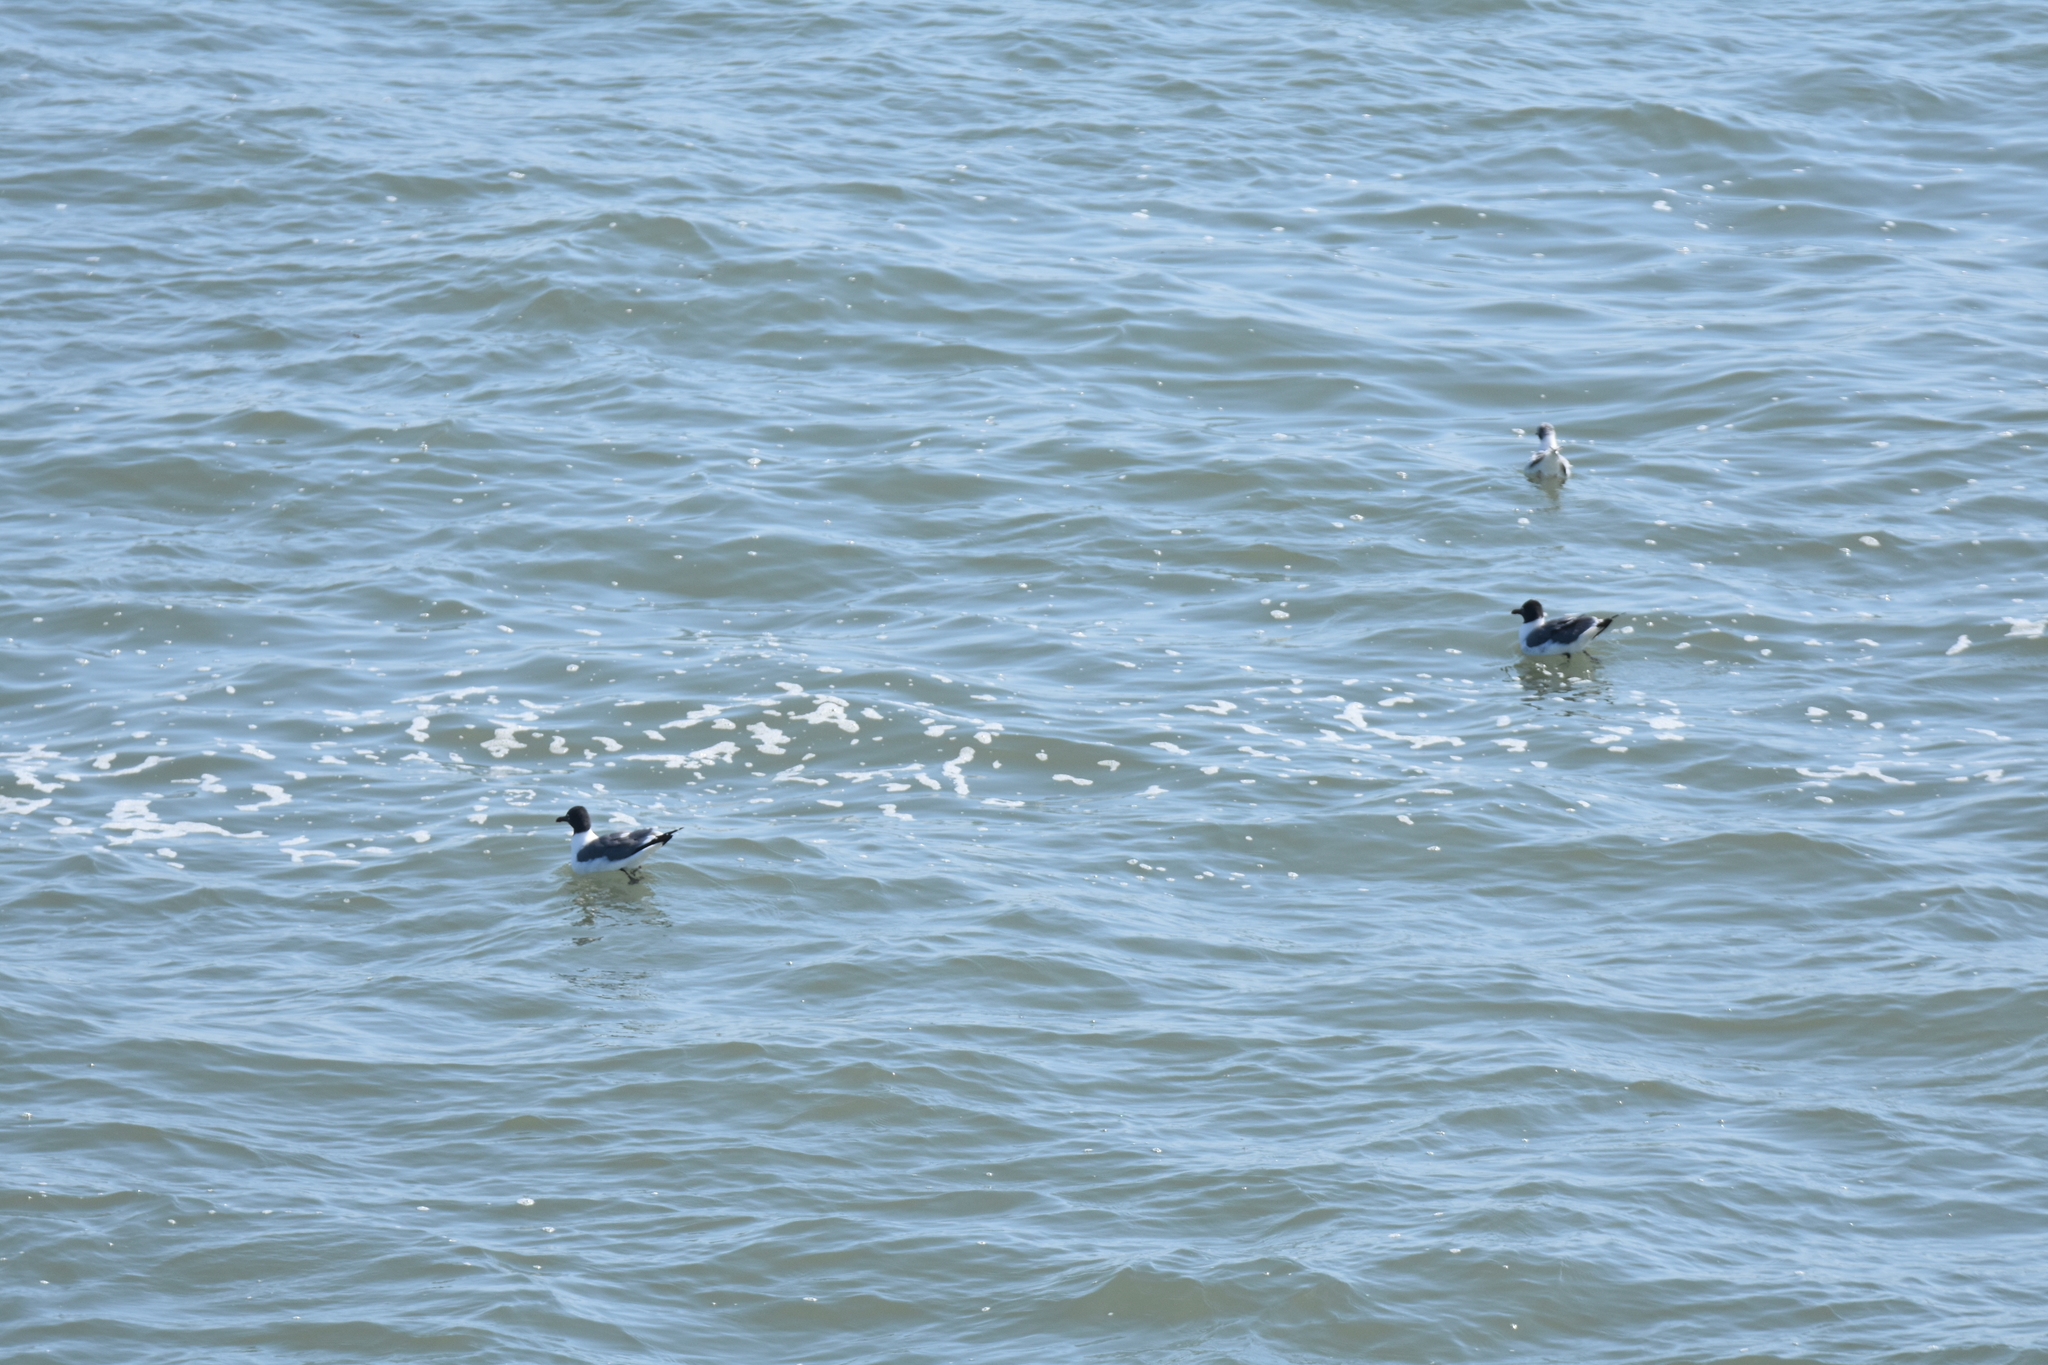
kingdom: Animalia
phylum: Chordata
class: Aves
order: Charadriiformes
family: Laridae
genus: Leucophaeus
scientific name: Leucophaeus atricilla
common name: Laughing gull
